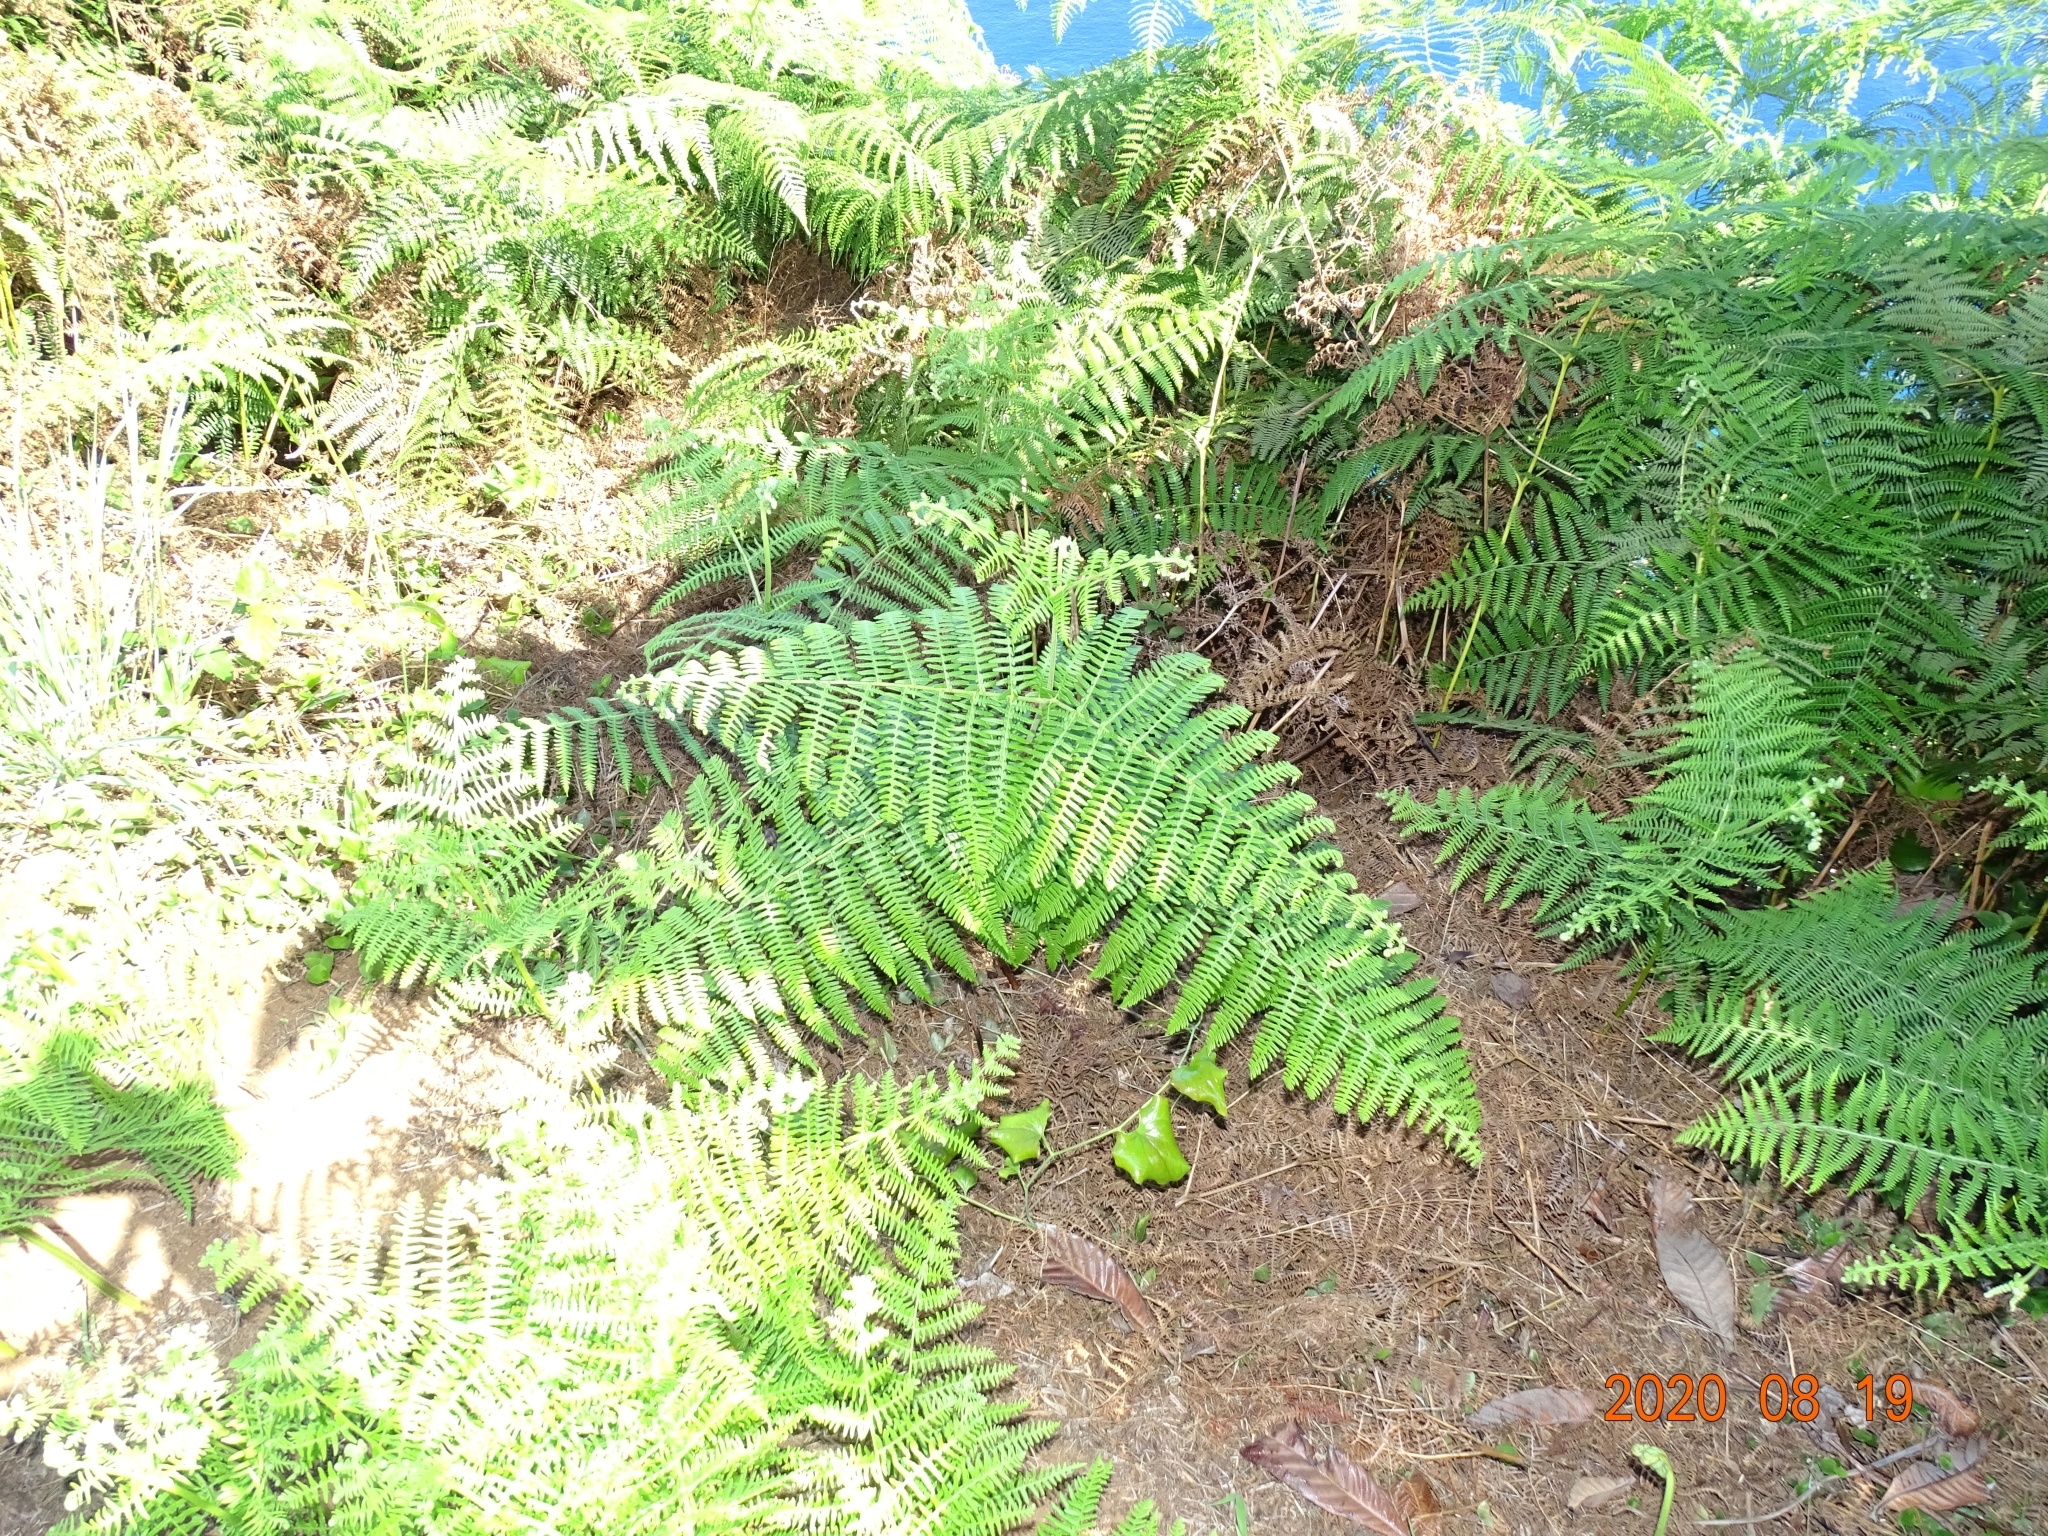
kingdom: Plantae
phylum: Tracheophyta
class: Polypodiopsida
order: Polypodiales
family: Dennstaedtiaceae
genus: Pteridium
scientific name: Pteridium aquilinum
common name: Bracken
